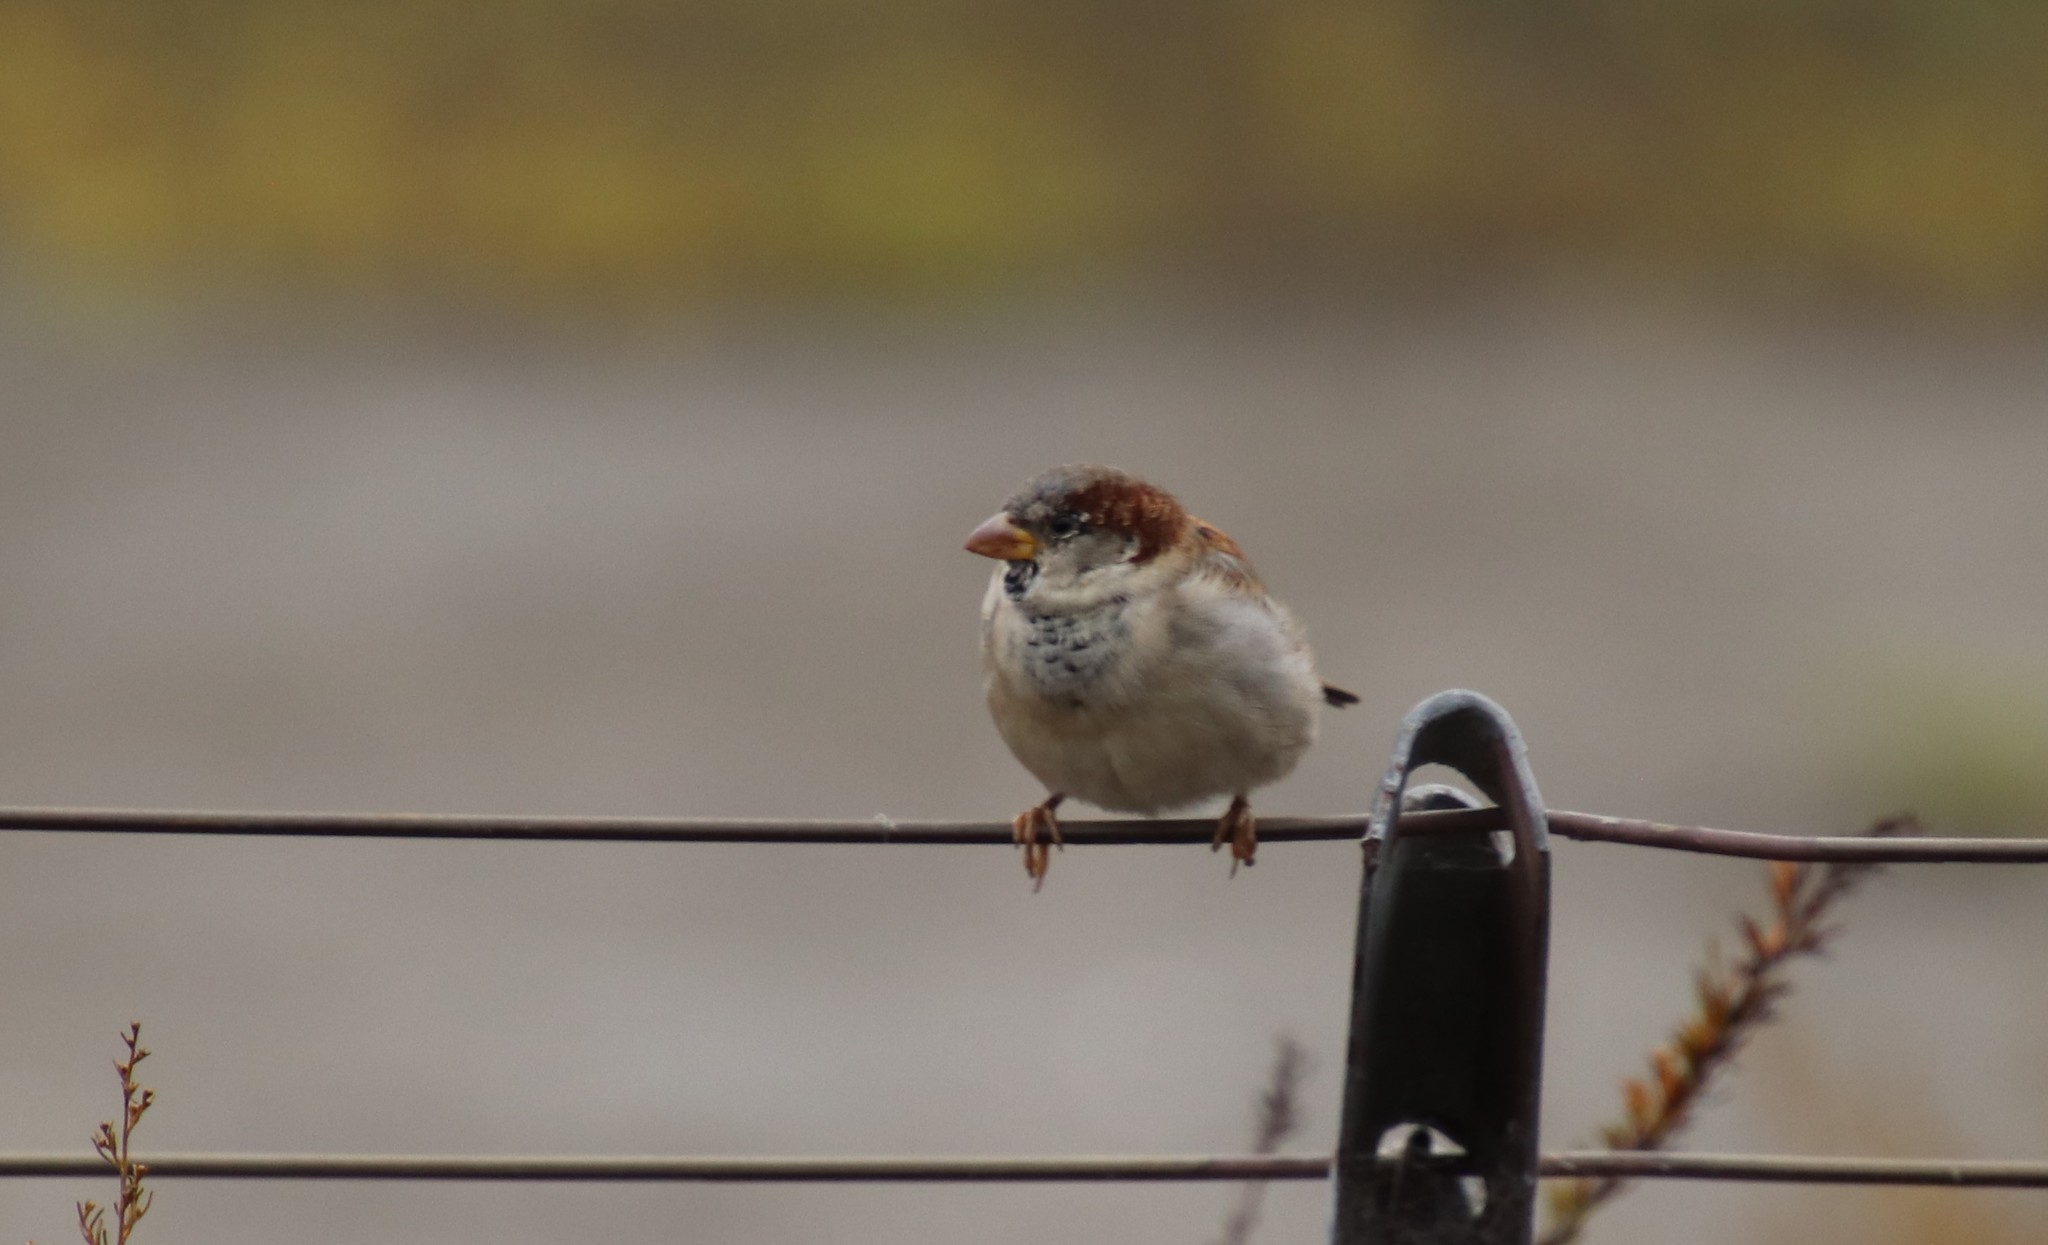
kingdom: Animalia
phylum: Chordata
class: Aves
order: Passeriformes
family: Passeridae
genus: Passer
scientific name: Passer domesticus
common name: House sparrow
